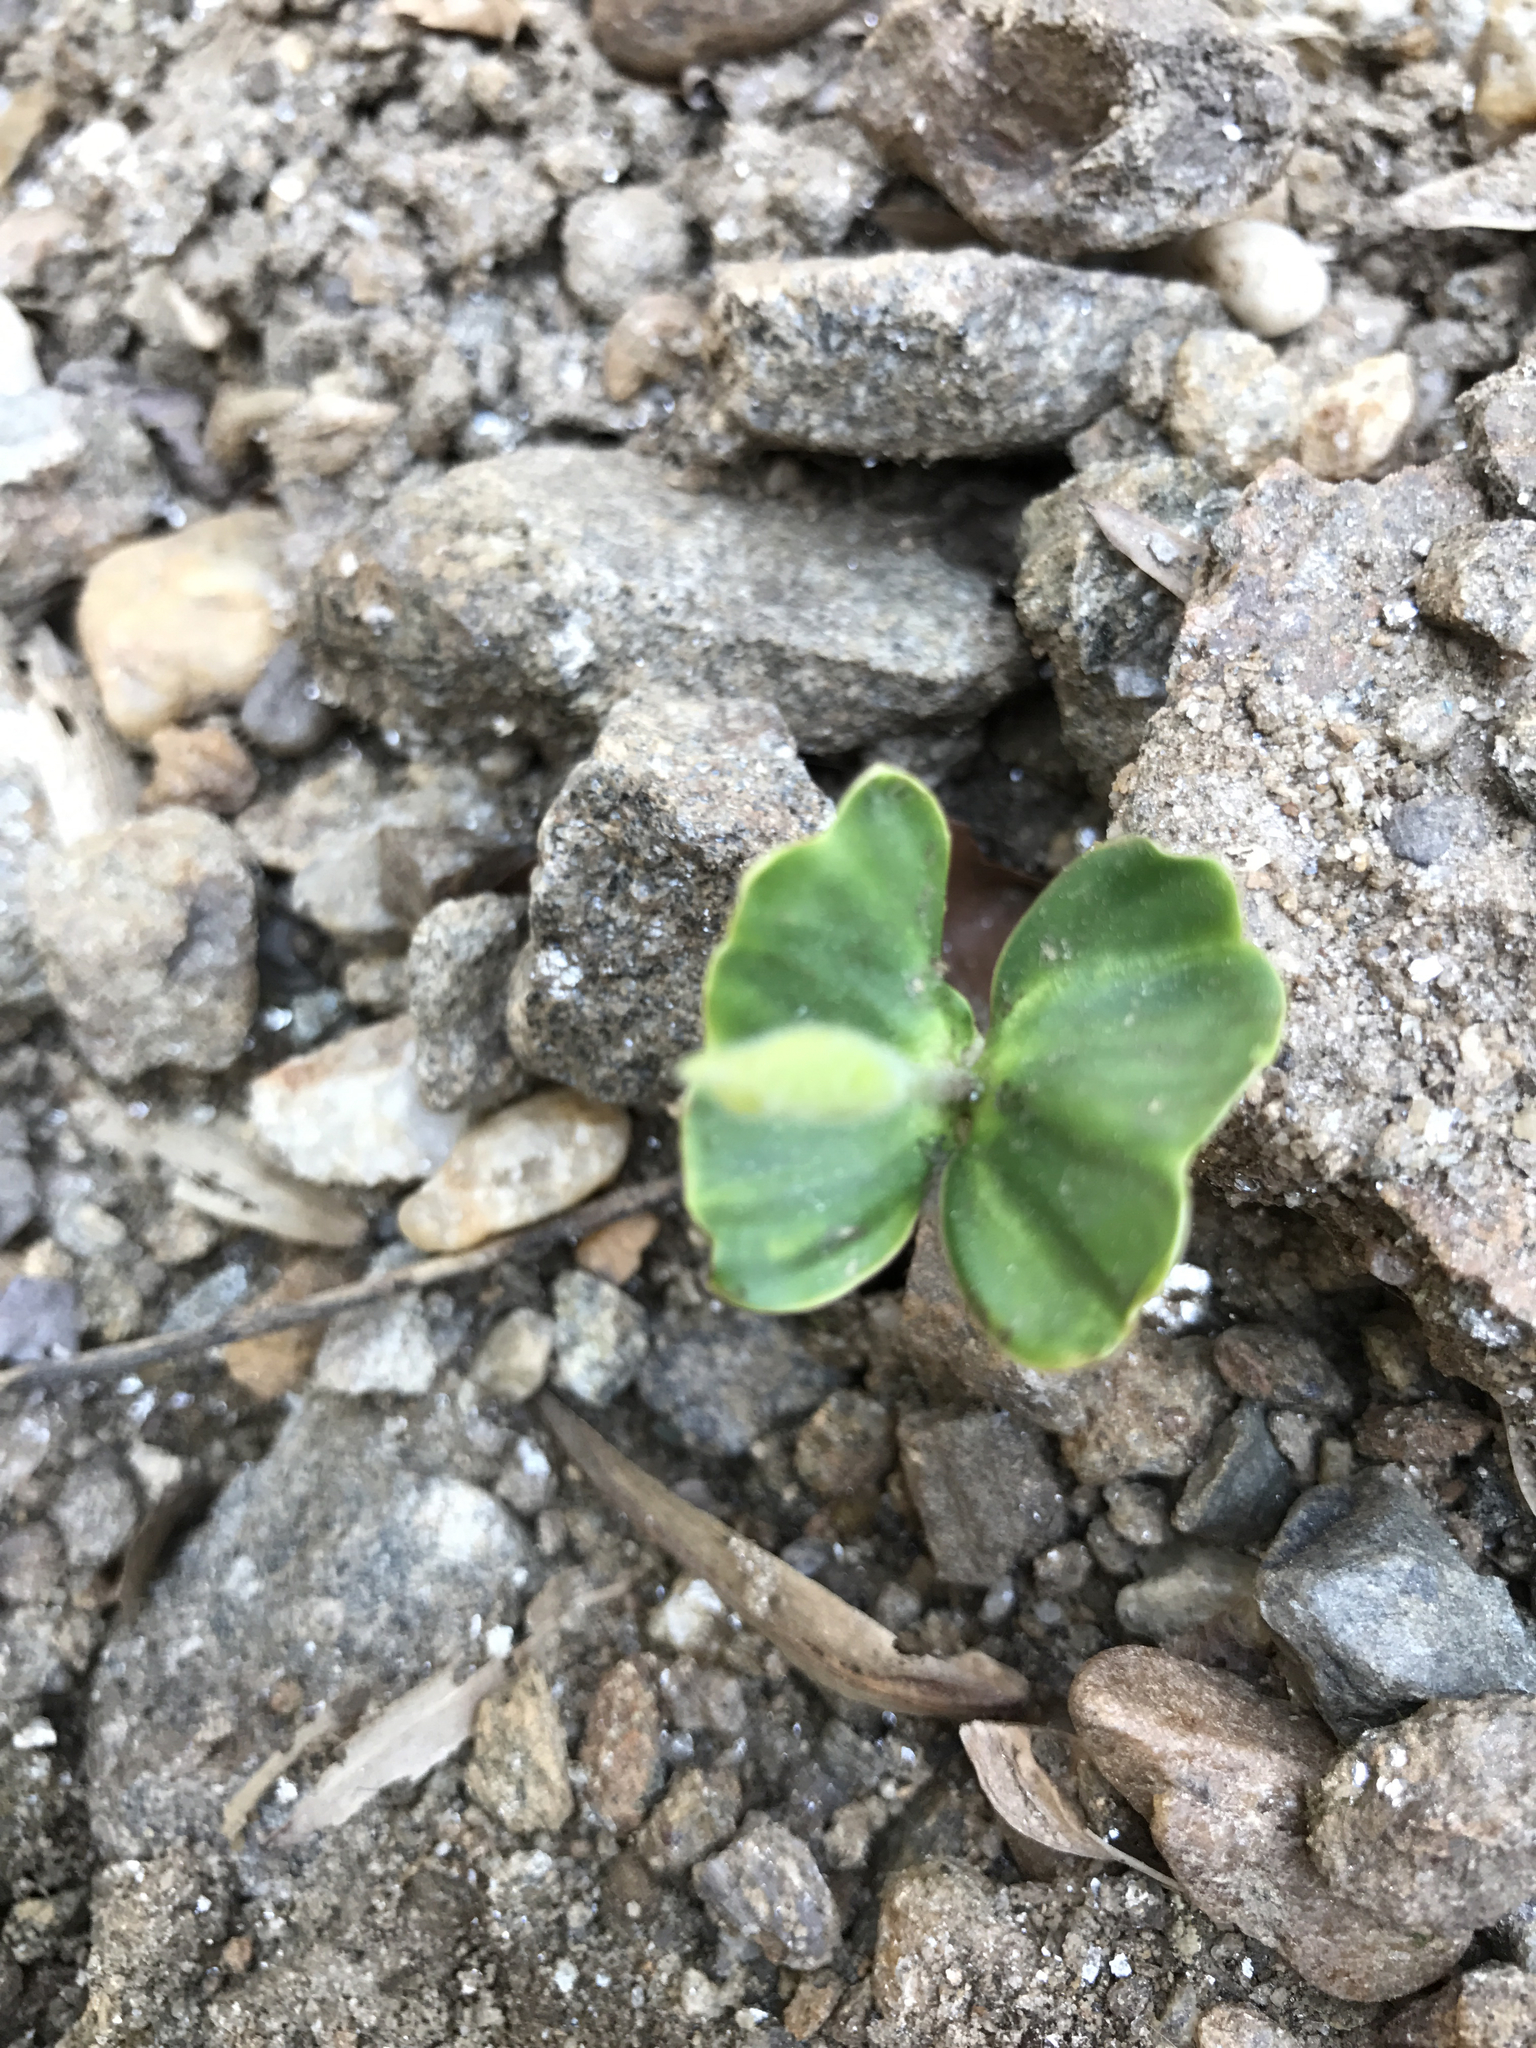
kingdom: Plantae
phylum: Tracheophyta
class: Magnoliopsida
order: Fagales
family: Fagaceae
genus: Fagus
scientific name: Fagus grandifolia
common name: American beech
